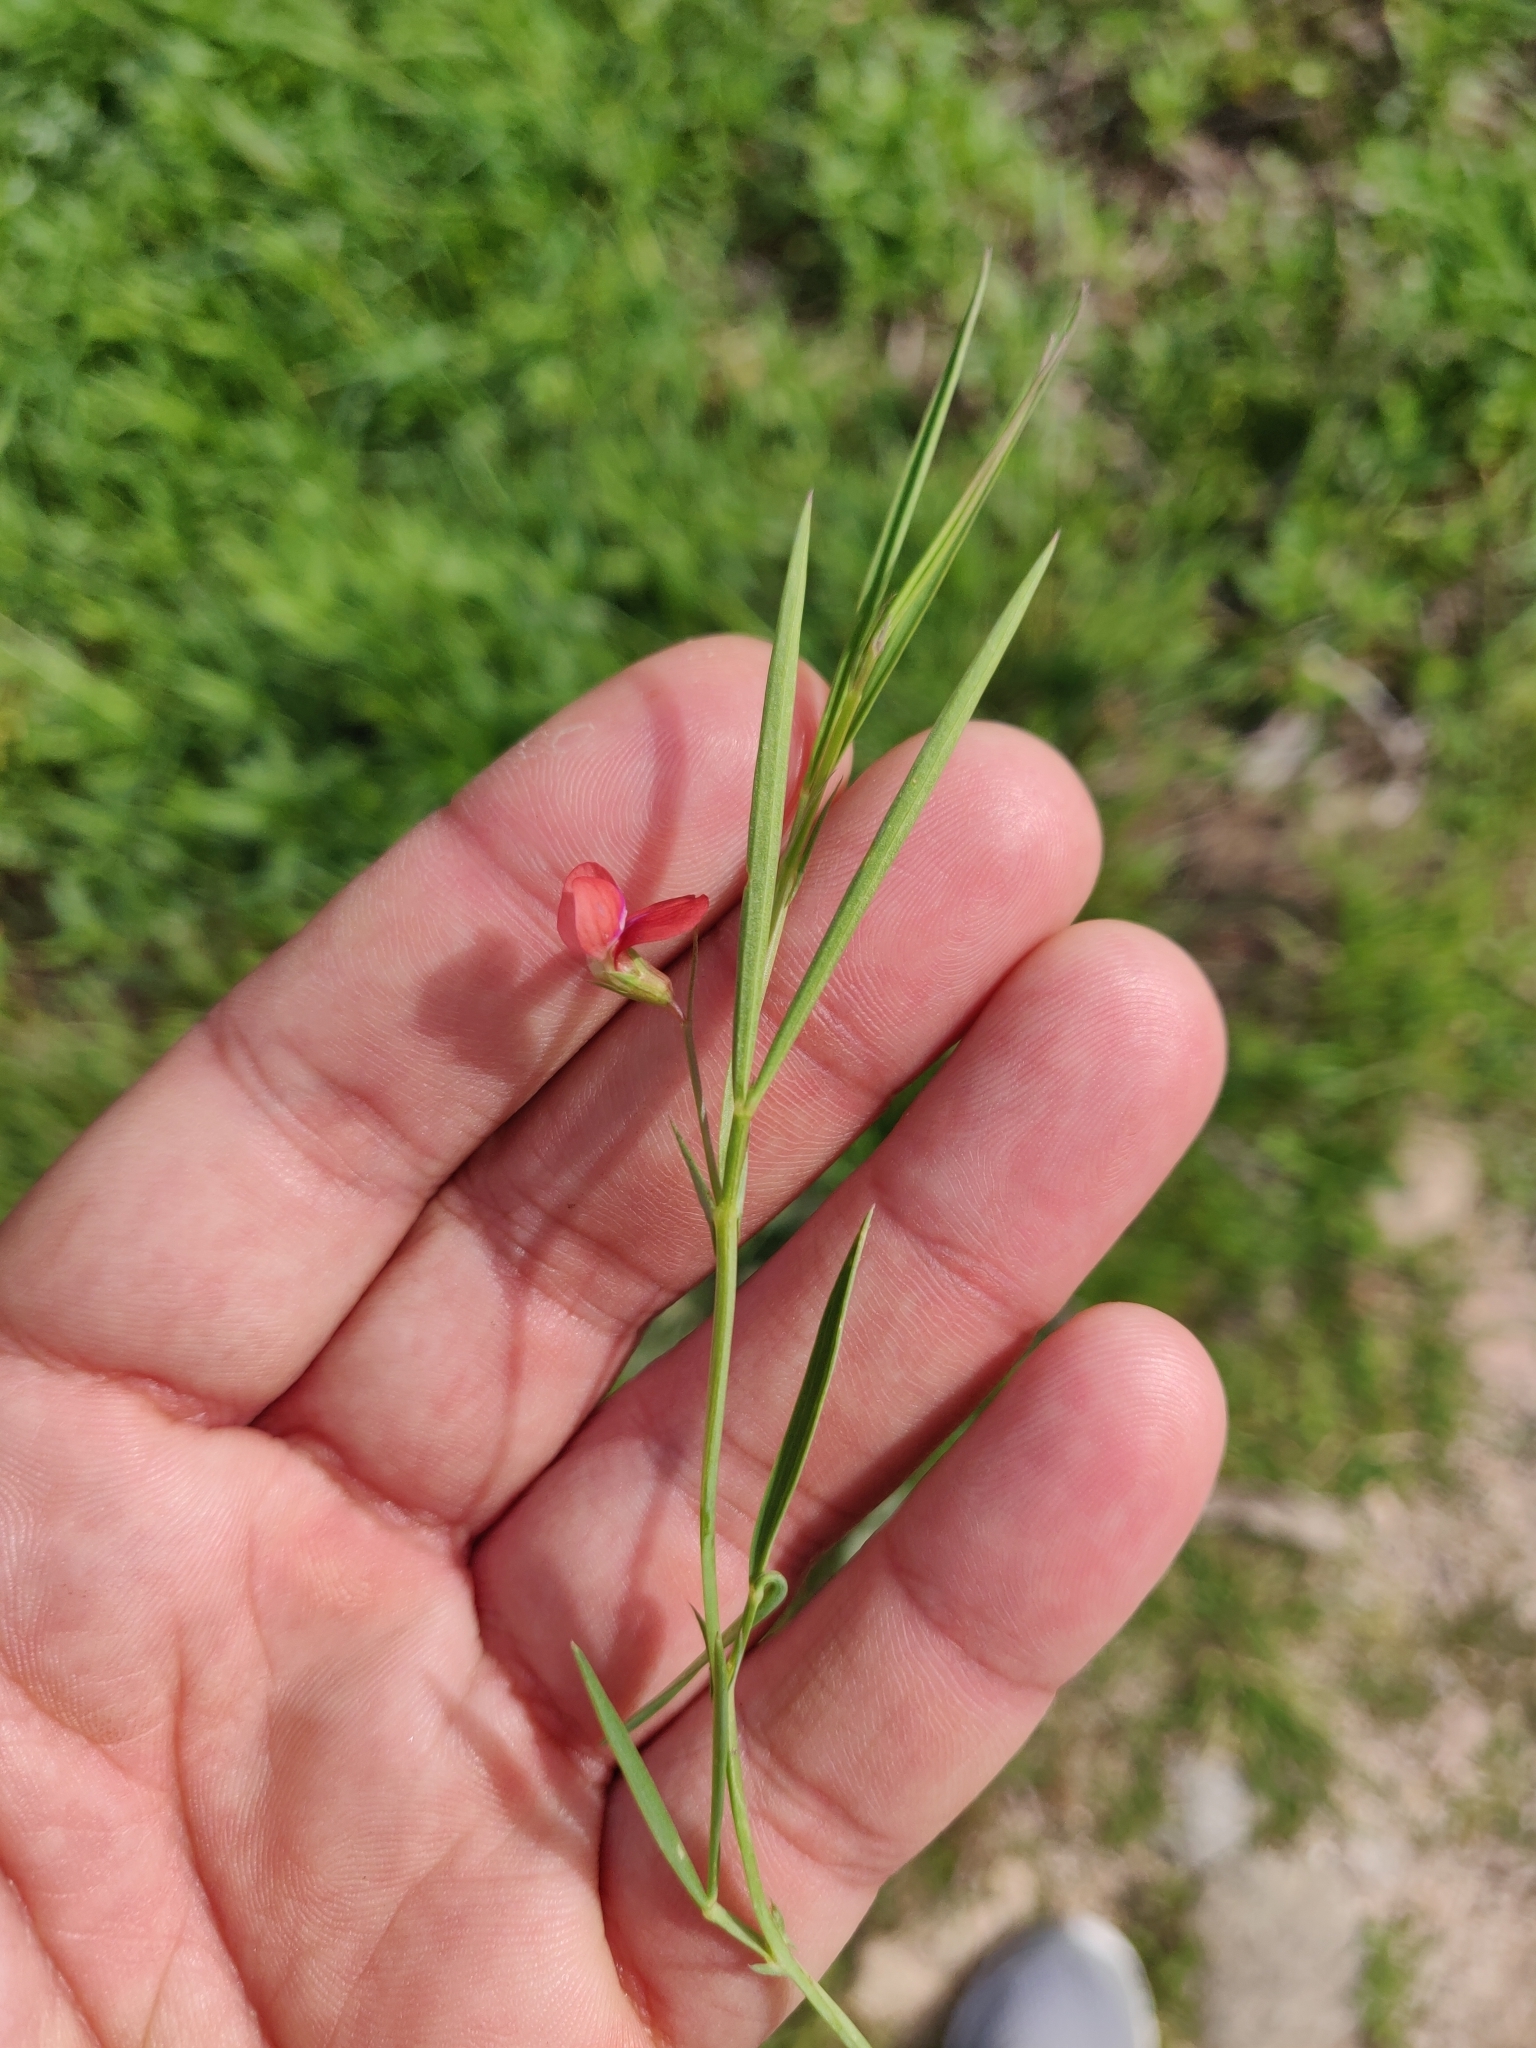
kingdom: Plantae
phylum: Tracheophyta
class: Magnoliopsida
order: Fabales
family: Fabaceae
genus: Lathyrus
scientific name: Lathyrus sphaericus
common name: Grass pea
